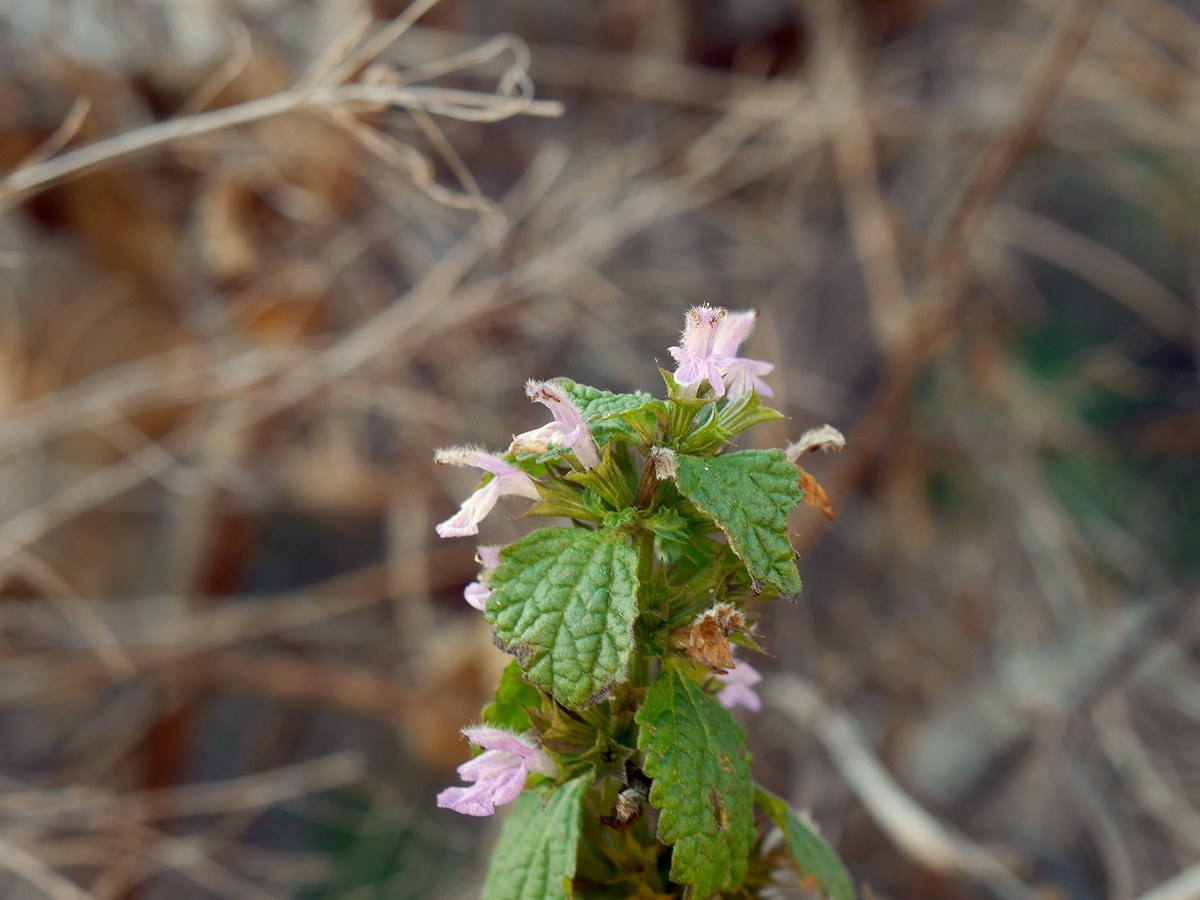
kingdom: Plantae
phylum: Tracheophyta
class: Magnoliopsida
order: Lamiales
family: Lamiaceae
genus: Ballota
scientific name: Ballota nigra
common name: Black horehound
